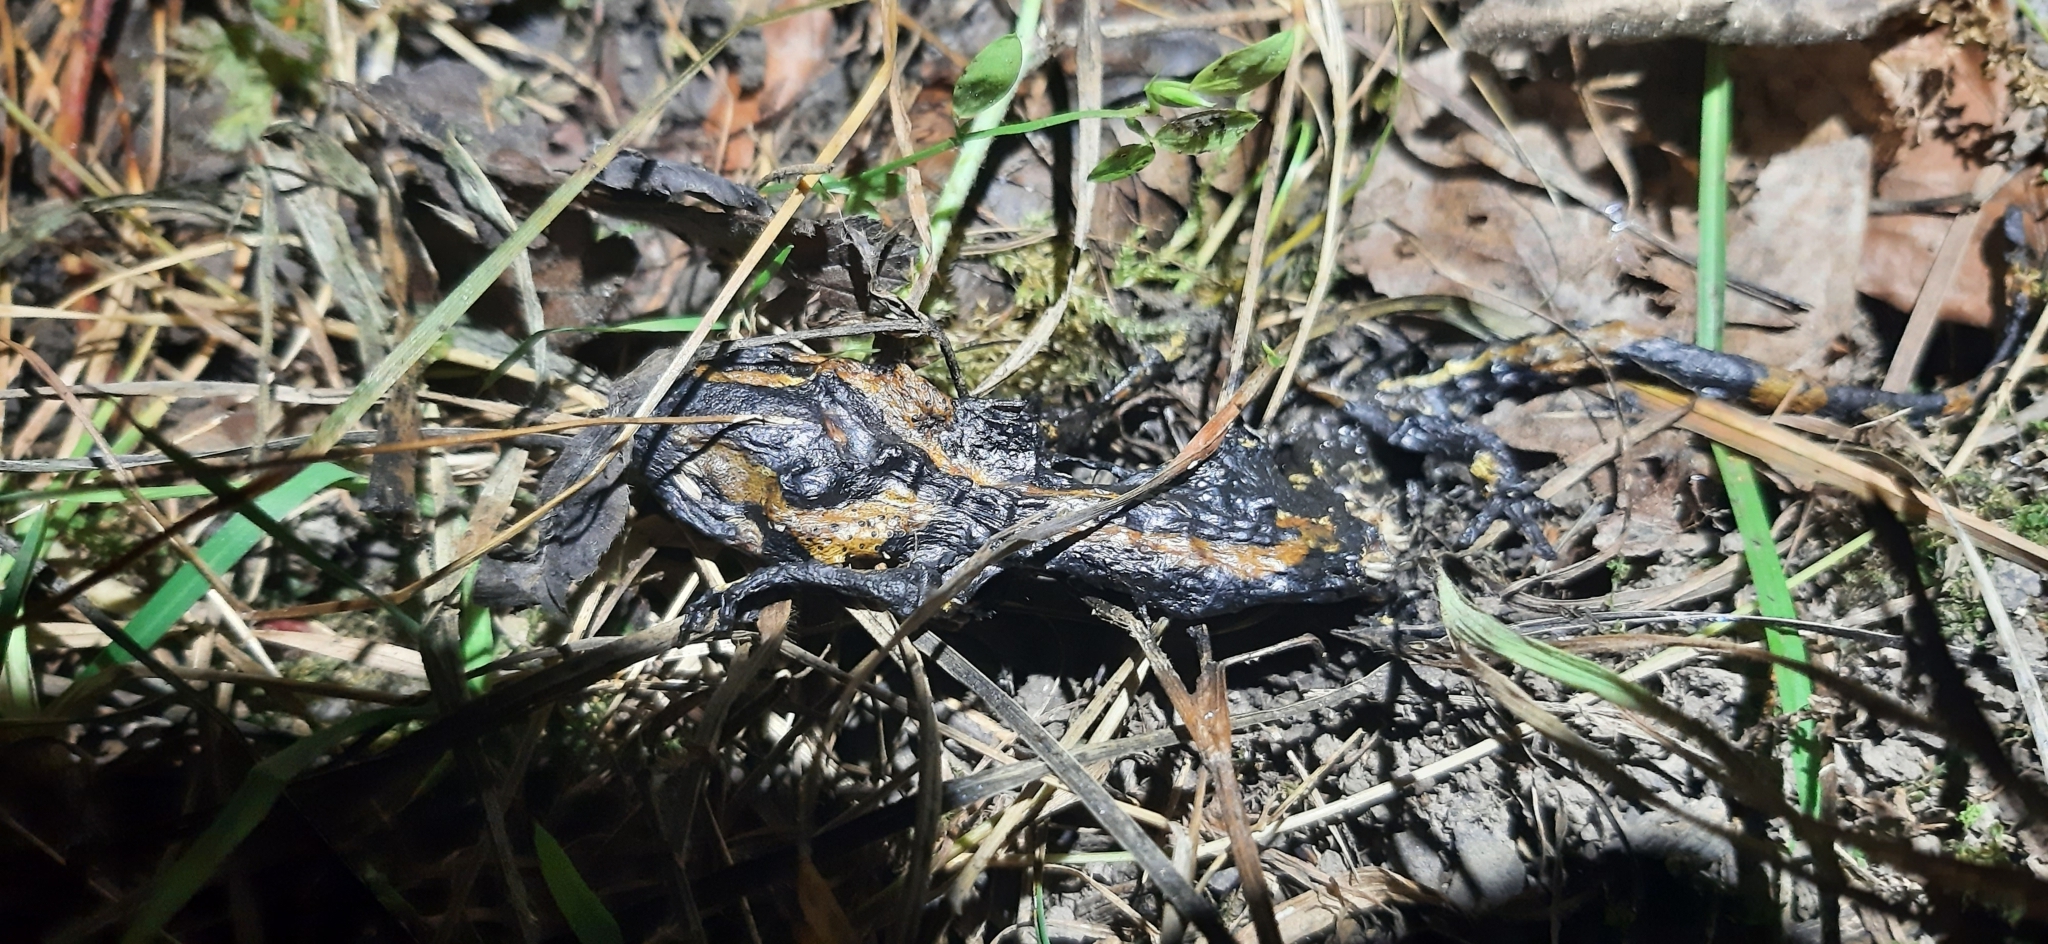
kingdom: Animalia
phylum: Chordata
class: Amphibia
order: Caudata
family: Salamandridae
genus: Salamandra
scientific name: Salamandra salamandra
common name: Fire salamander
